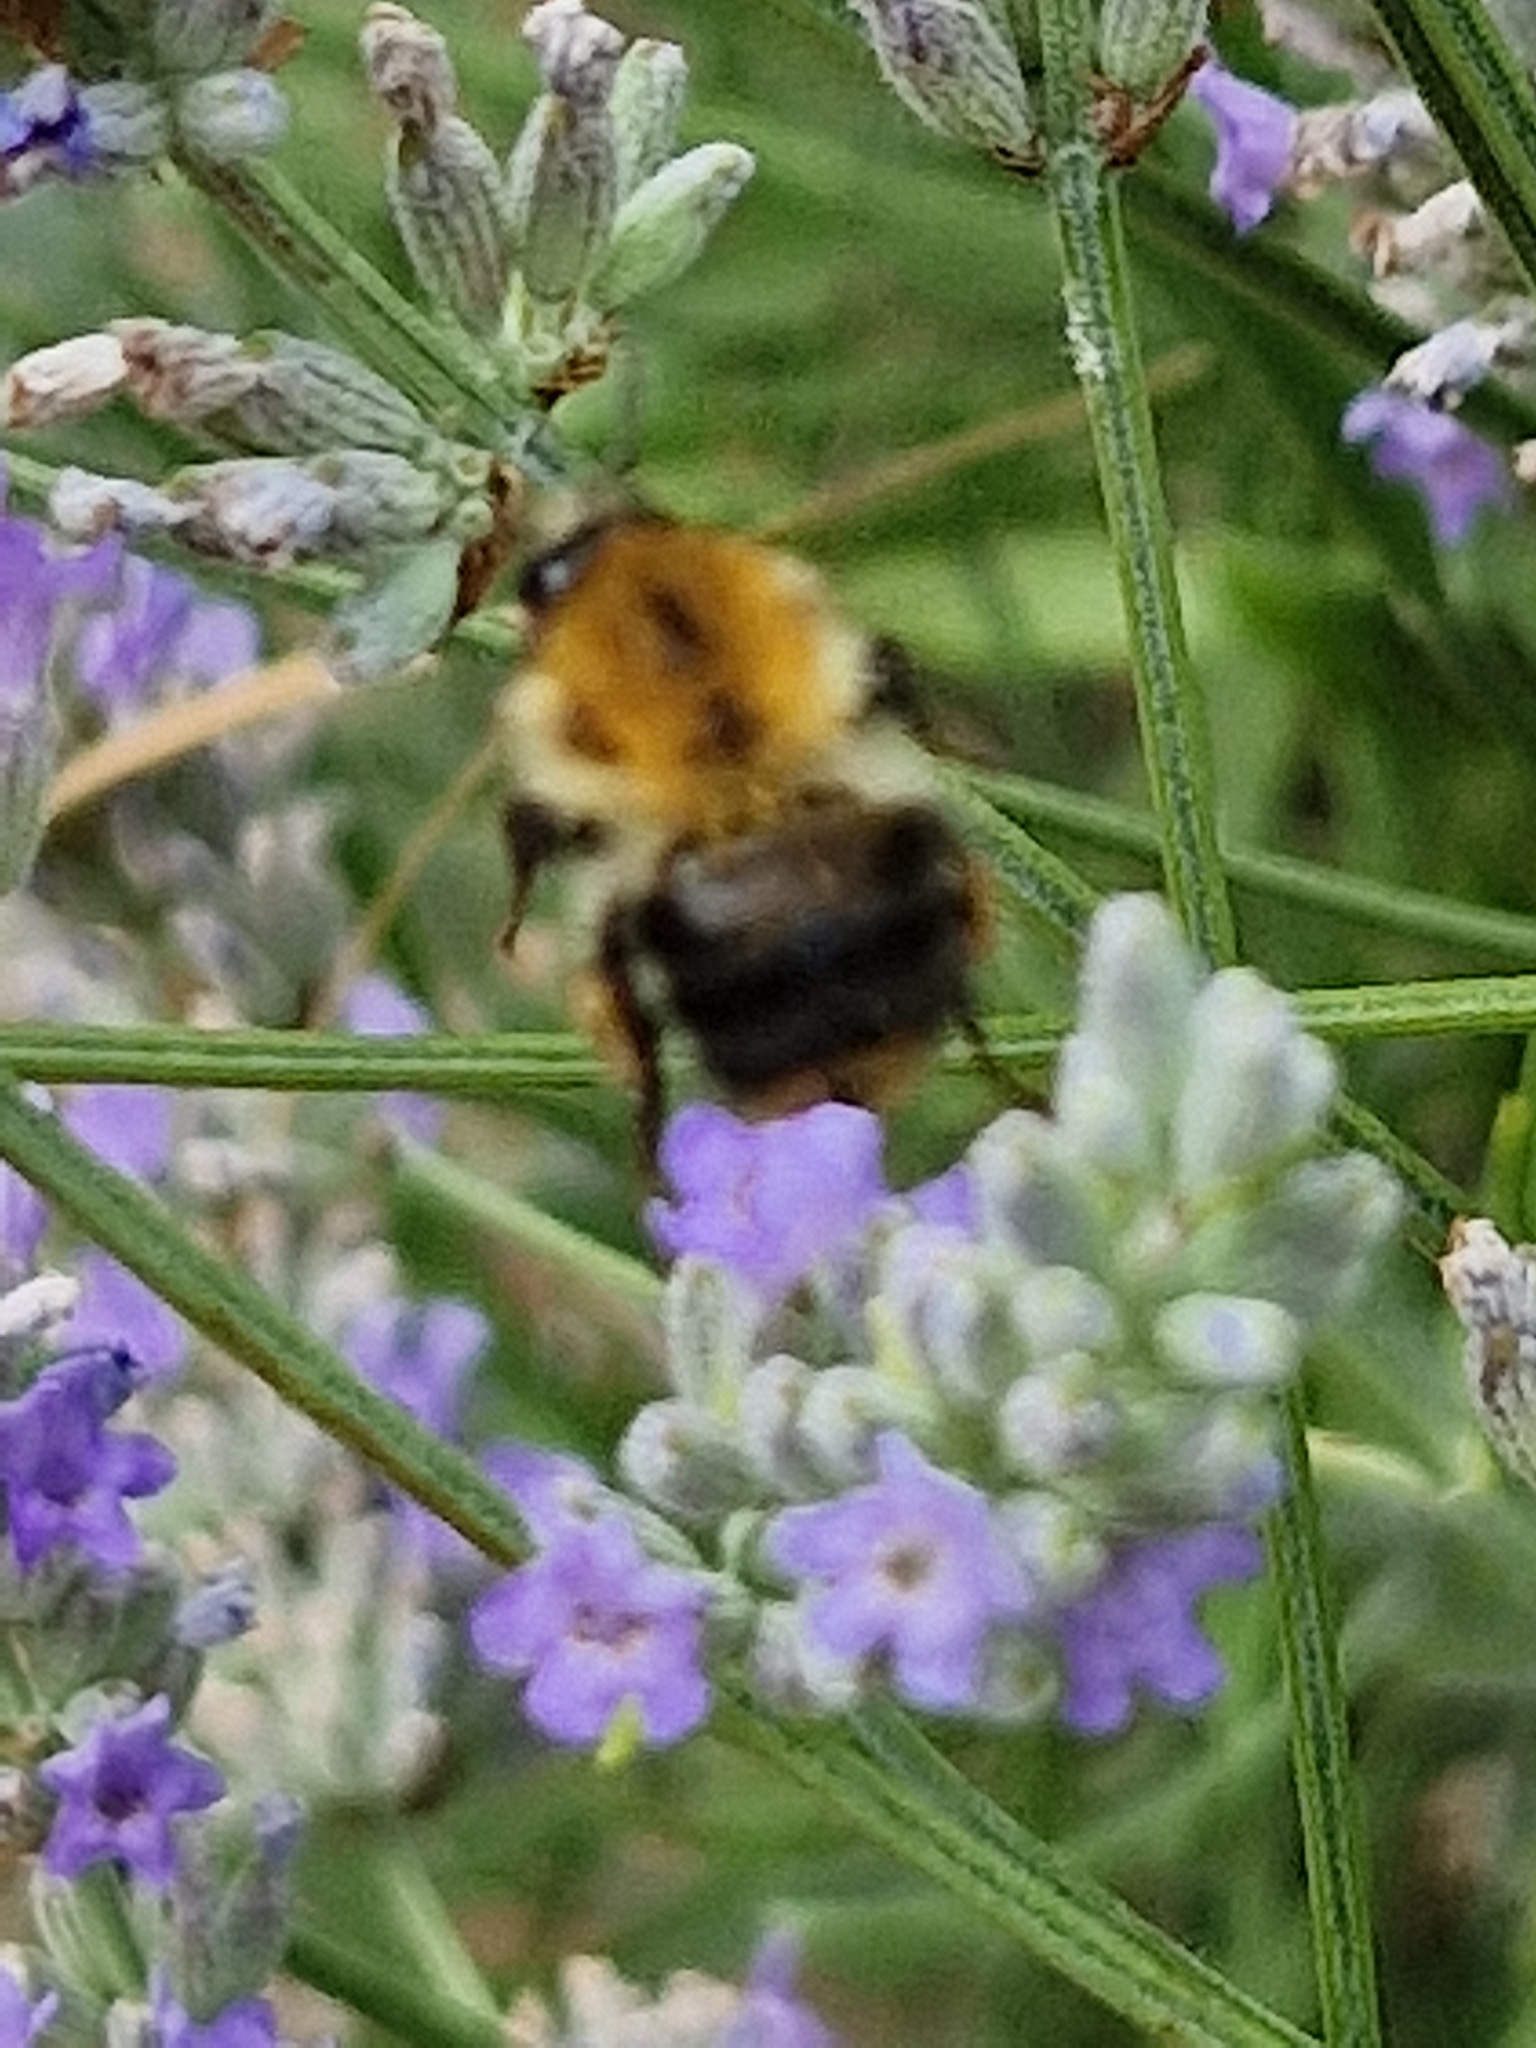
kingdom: Animalia
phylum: Arthropoda
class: Insecta
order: Hymenoptera
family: Apidae
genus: Bombus
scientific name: Bombus pascuorum
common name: Common carder bee
